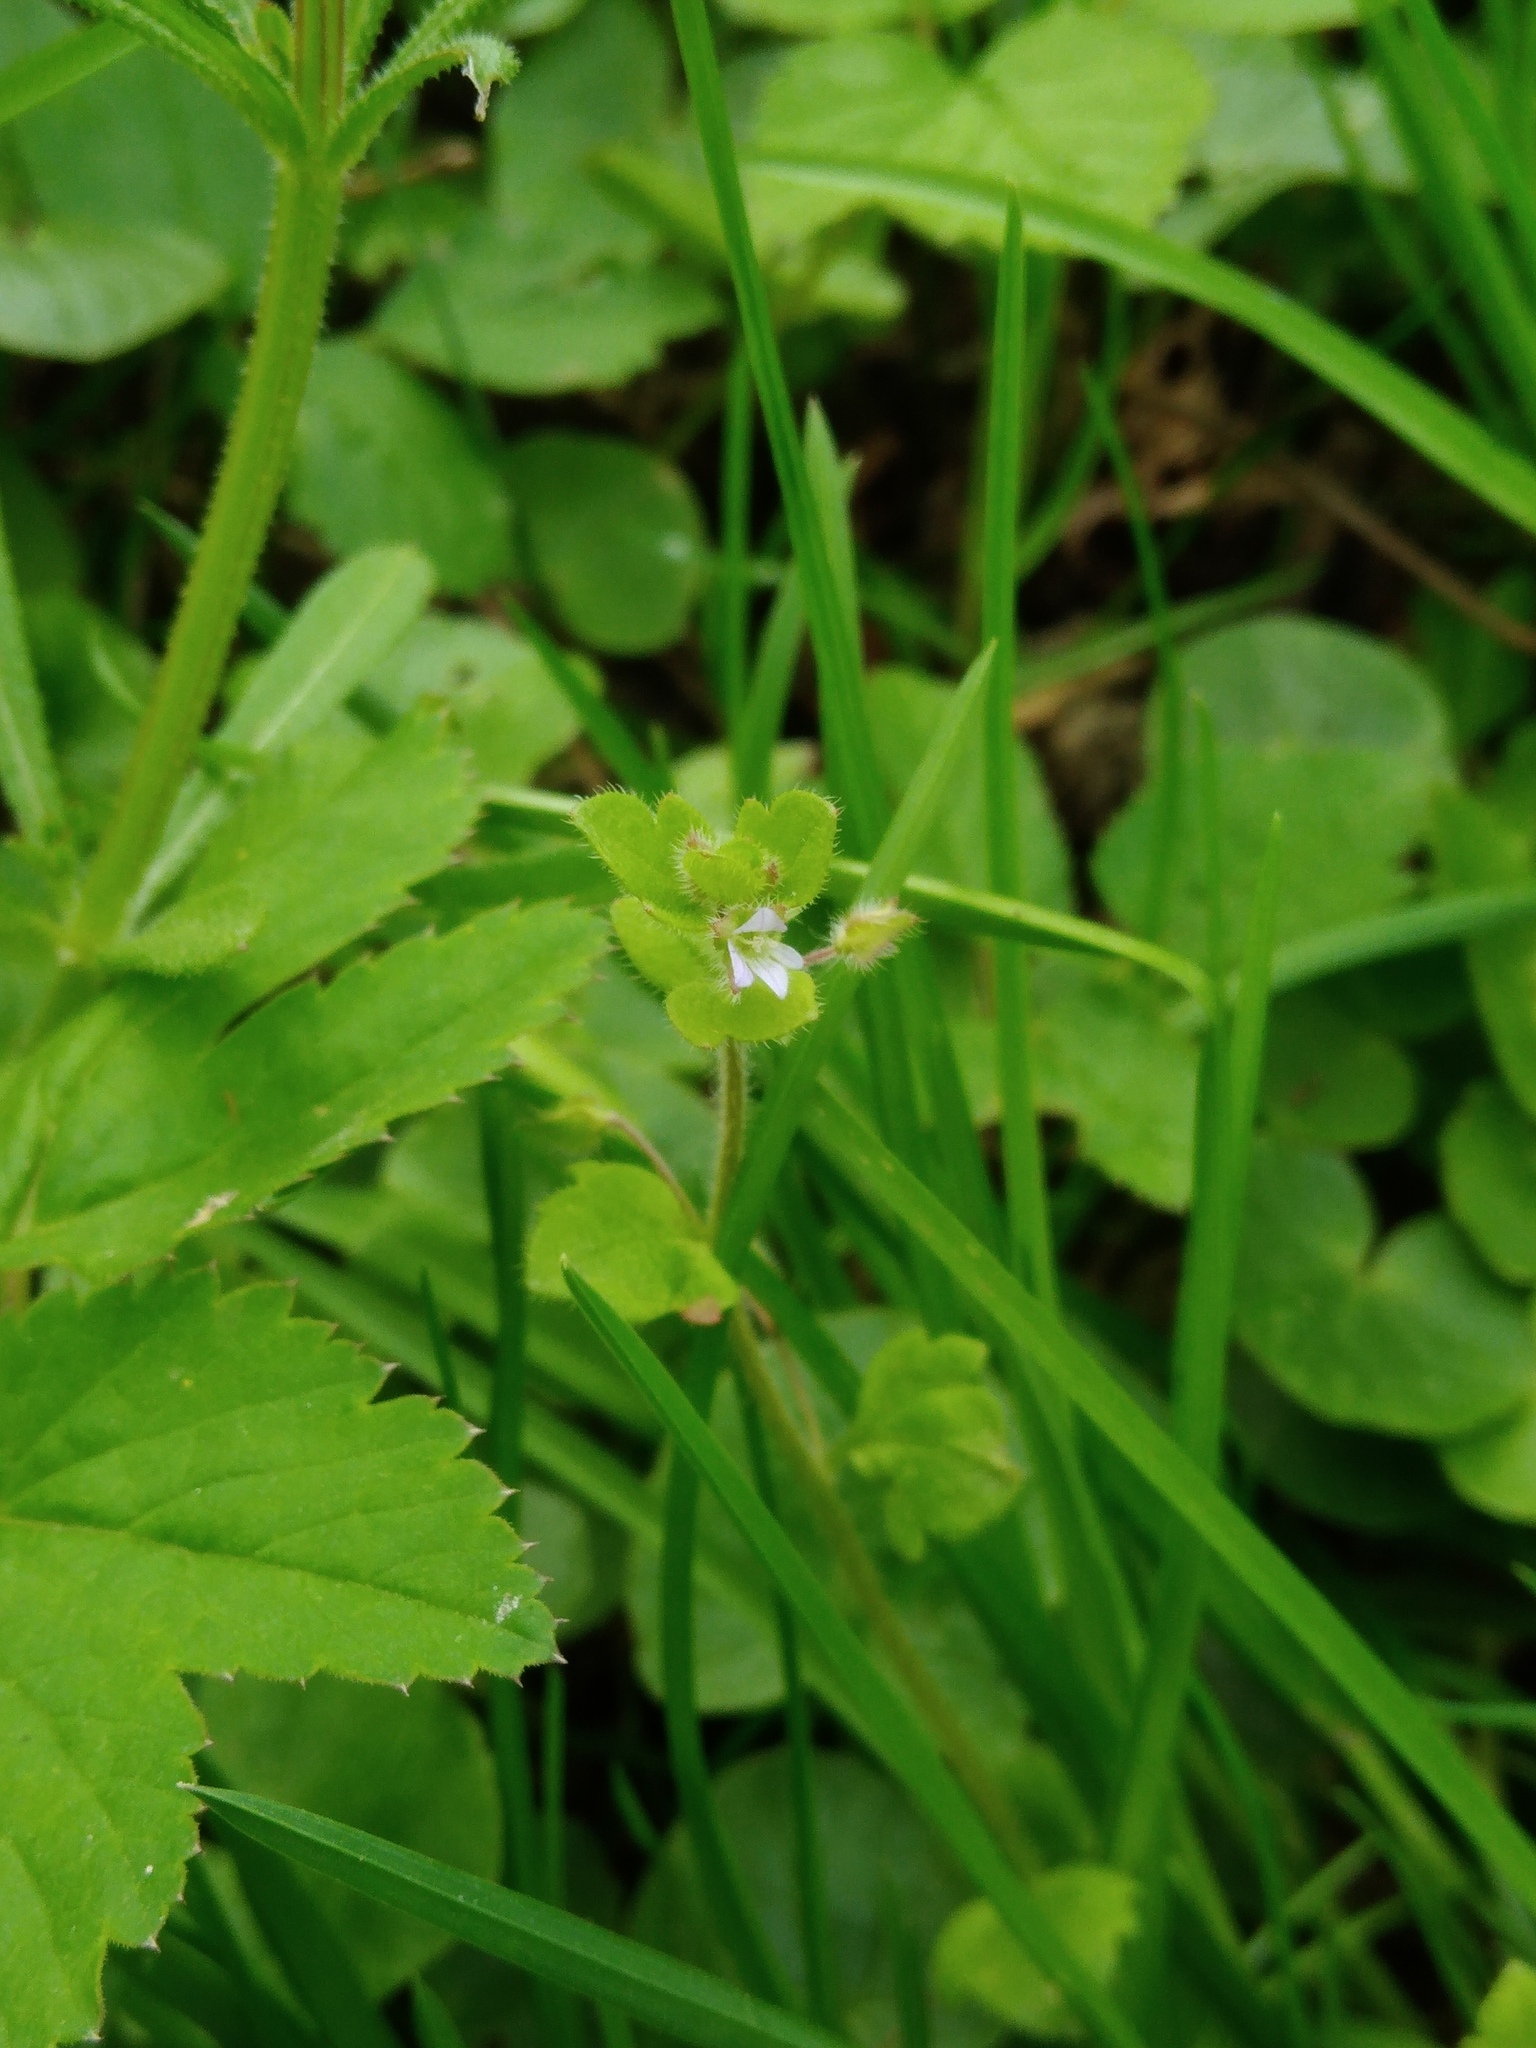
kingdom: Plantae
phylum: Tracheophyta
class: Magnoliopsida
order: Lamiales
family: Plantaginaceae
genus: Veronica
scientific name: Veronica sublobata
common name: False ivy-leaved speedwell
